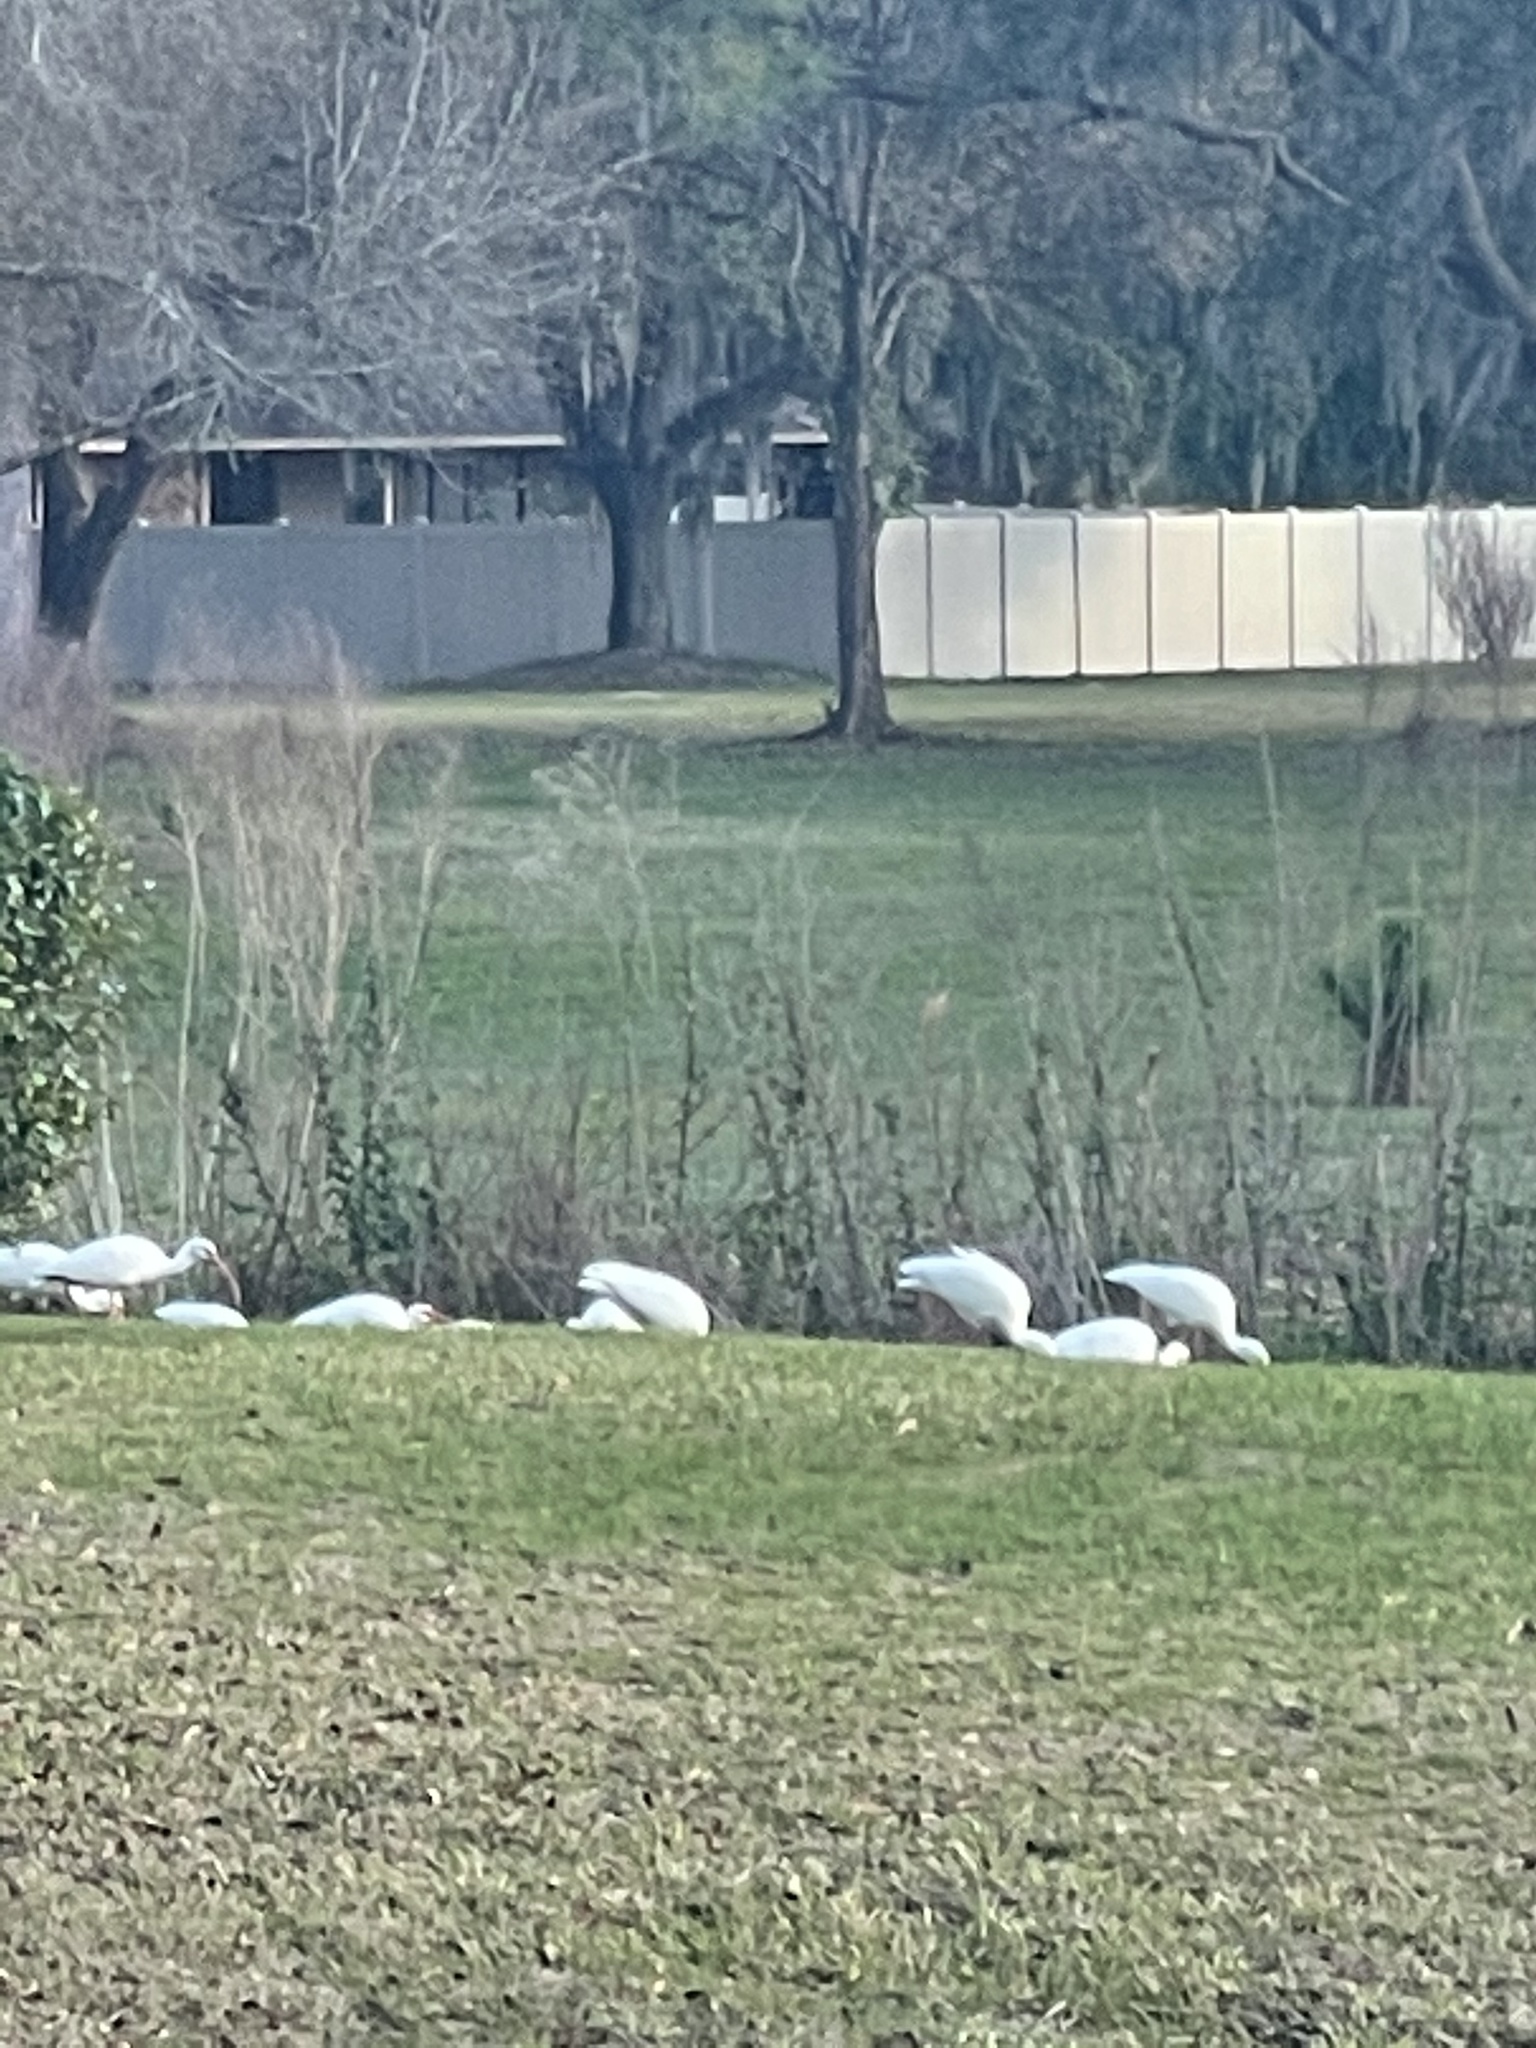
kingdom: Animalia
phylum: Chordata
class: Aves
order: Pelecaniformes
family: Threskiornithidae
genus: Eudocimus
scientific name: Eudocimus albus
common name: White ibis
